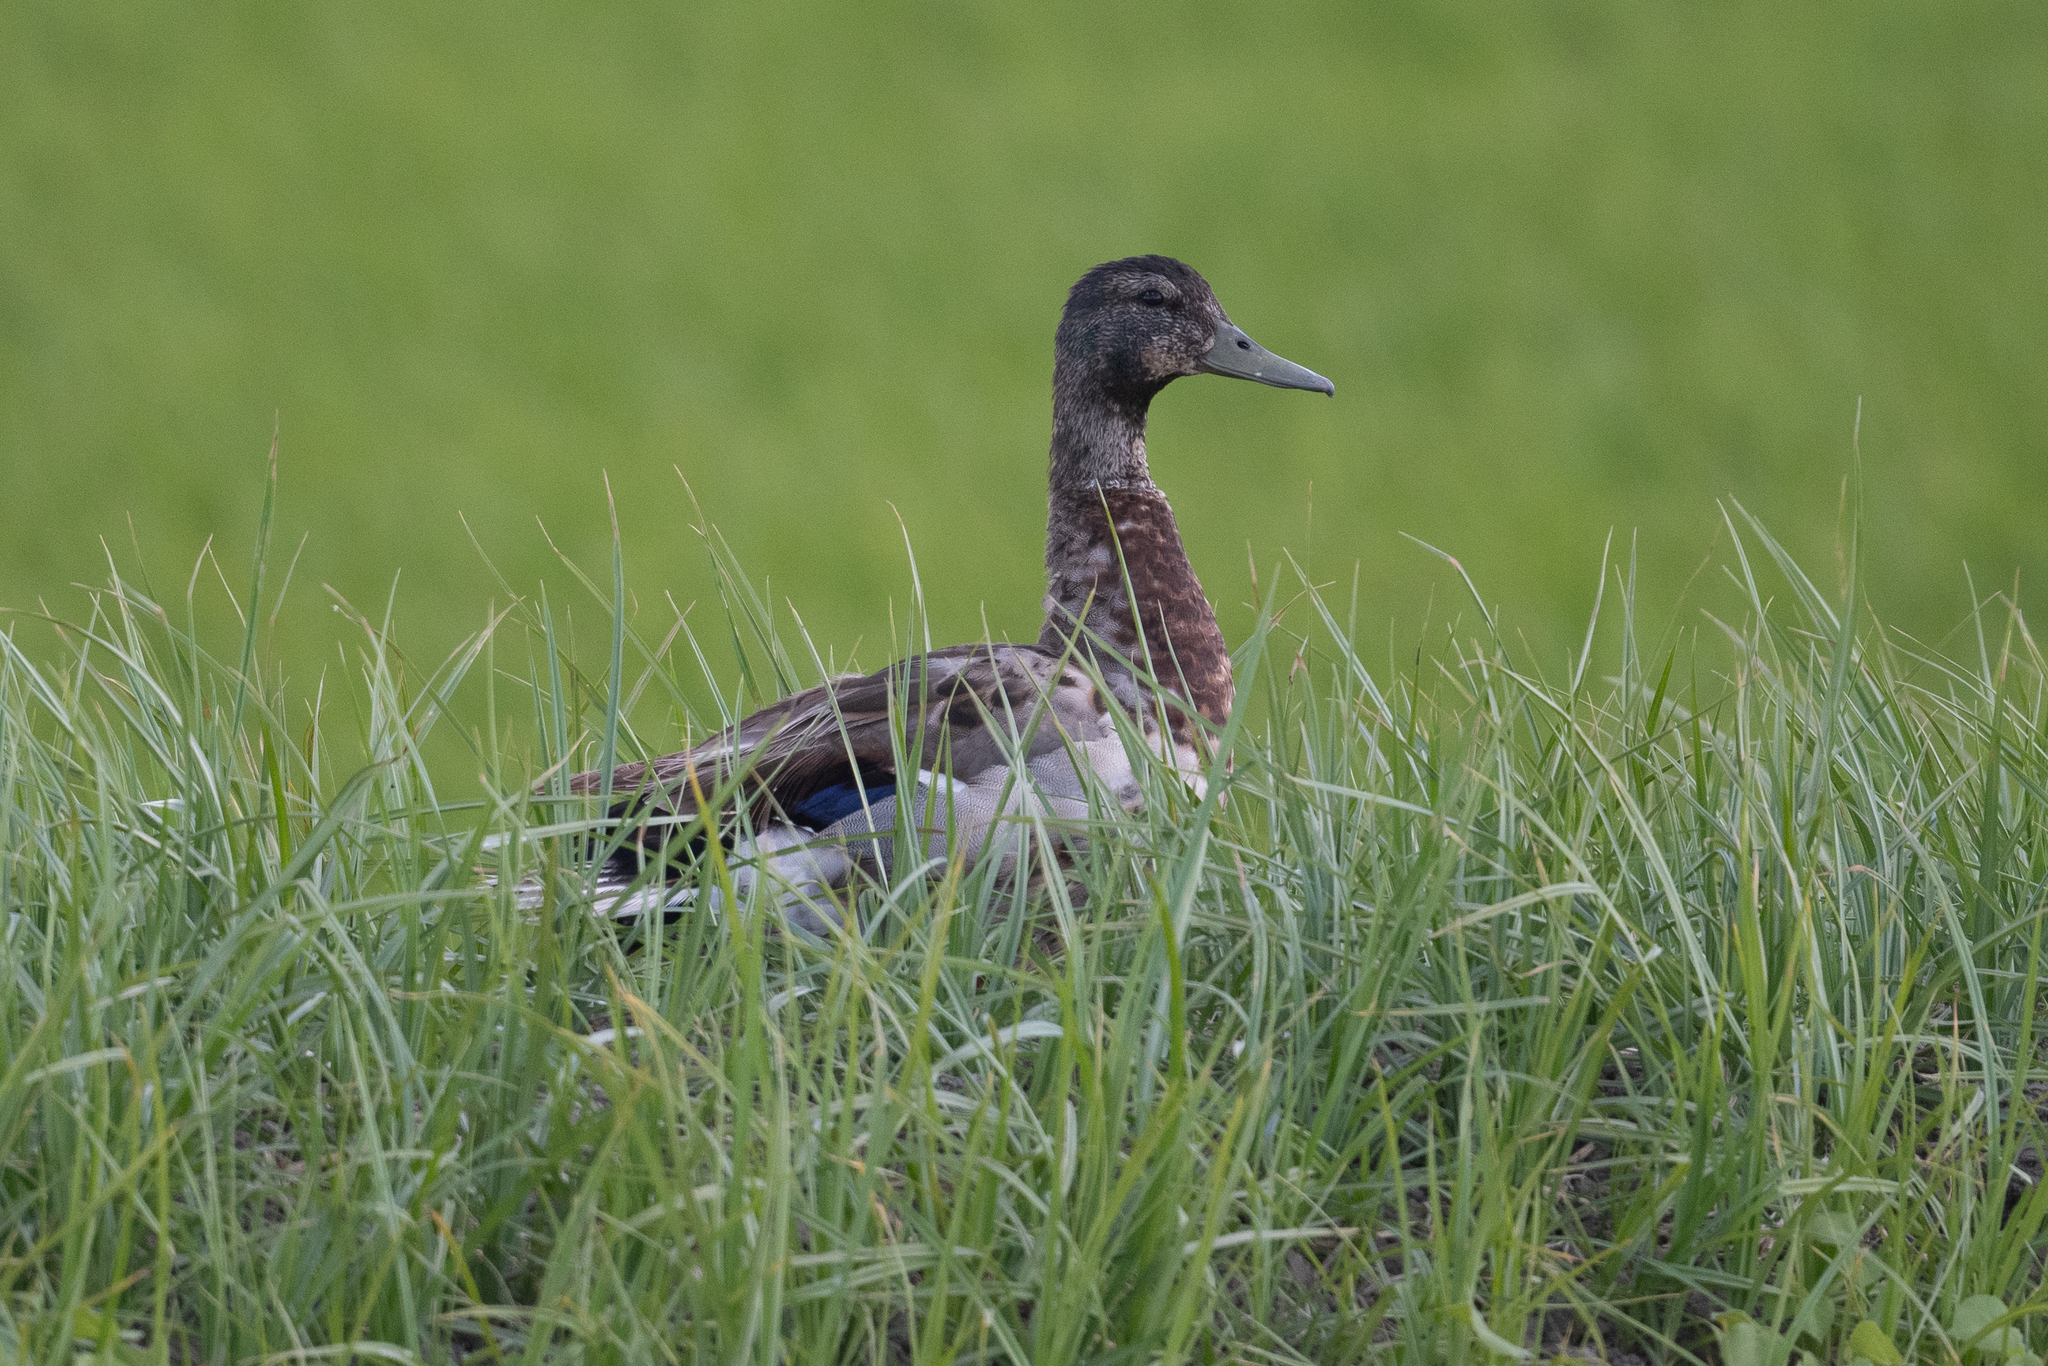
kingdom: Animalia
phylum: Chordata
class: Aves
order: Anseriformes
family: Anatidae
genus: Anas
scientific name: Anas platyrhynchos
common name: Mallard
